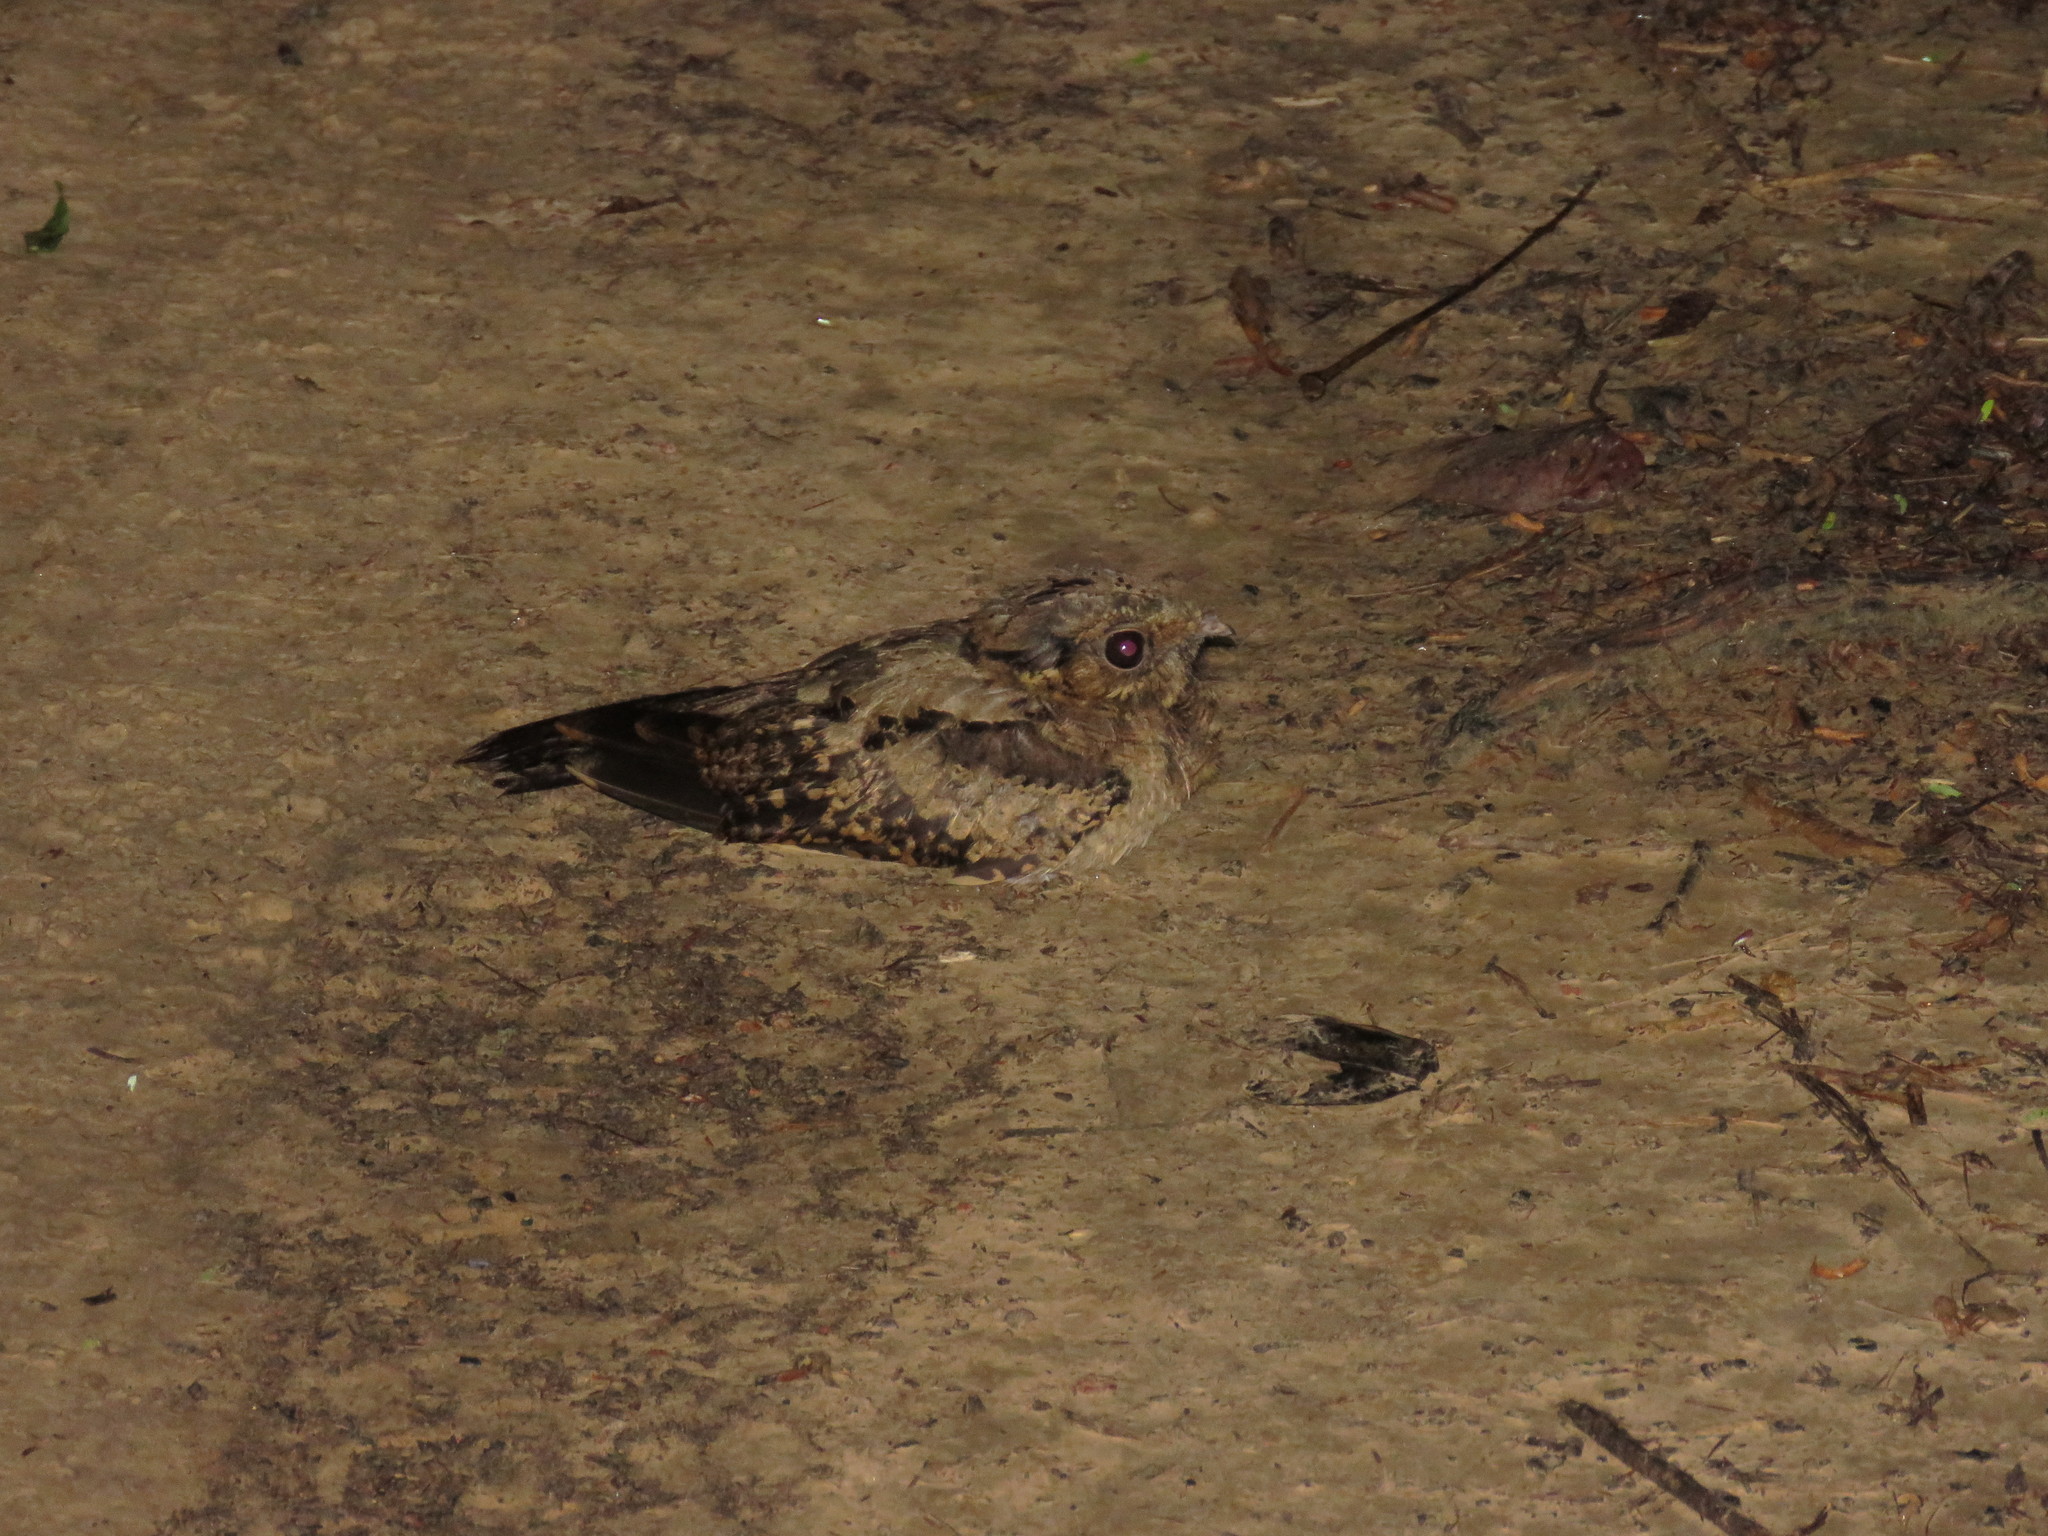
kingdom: Animalia
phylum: Chordata
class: Aves
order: Caprimulgiformes
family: Caprimulgidae
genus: Nyctidromus
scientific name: Nyctidromus albicollis
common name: Pauraque
